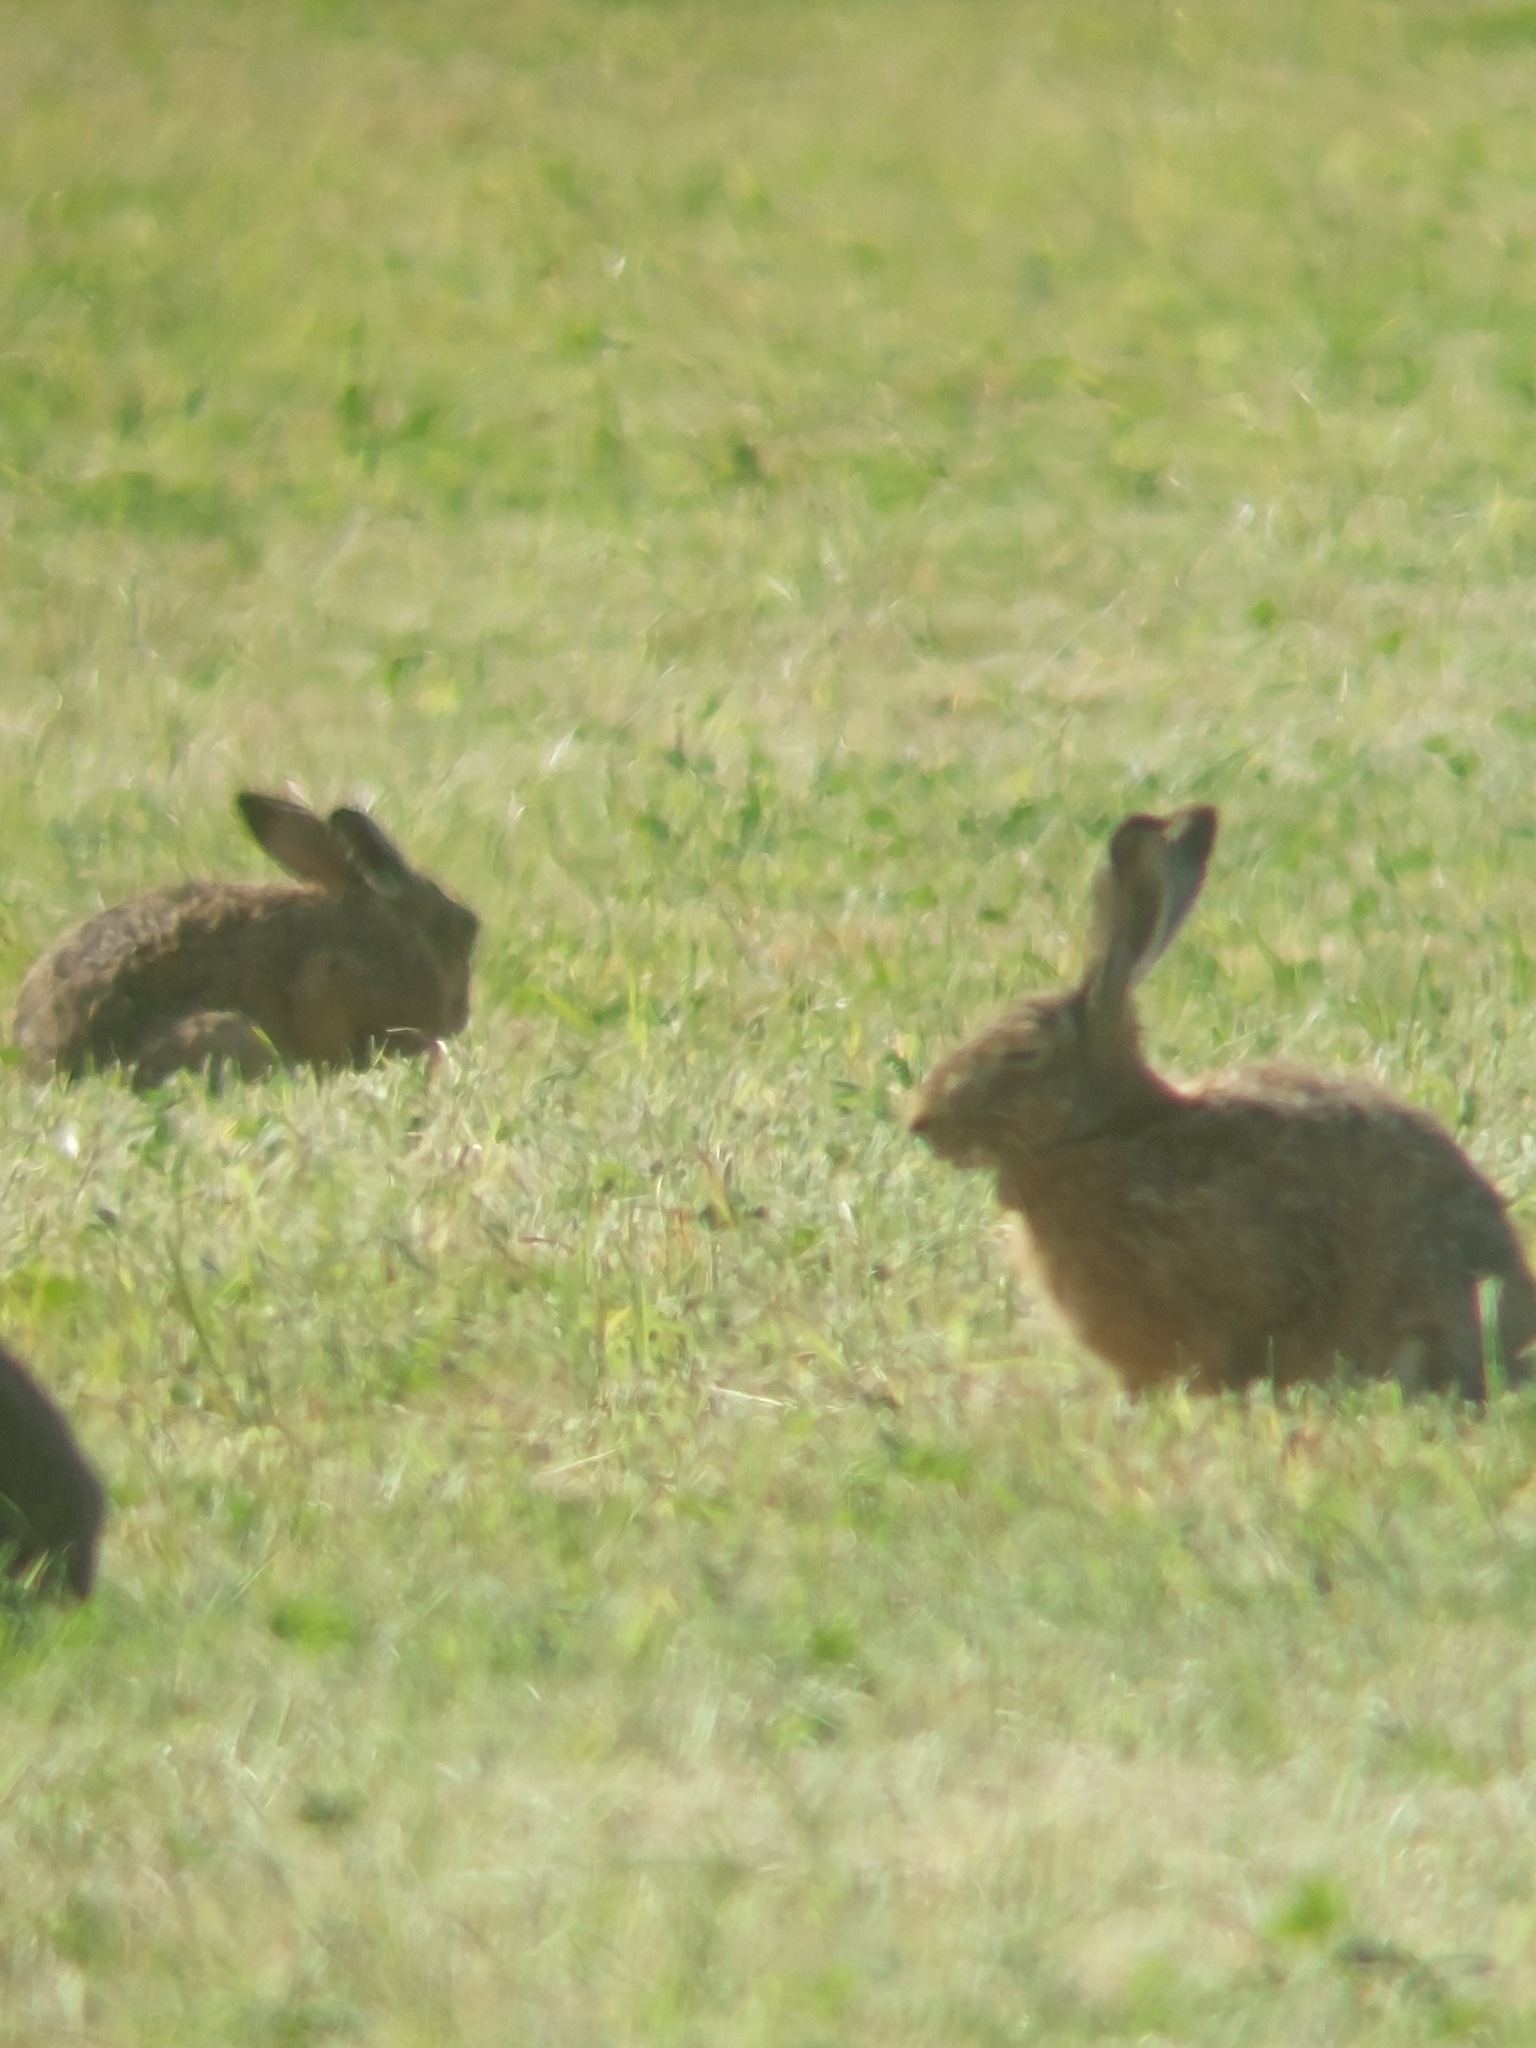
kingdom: Animalia
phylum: Chordata
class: Mammalia
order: Lagomorpha
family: Leporidae
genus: Lepus
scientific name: Lepus europaeus
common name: European hare
